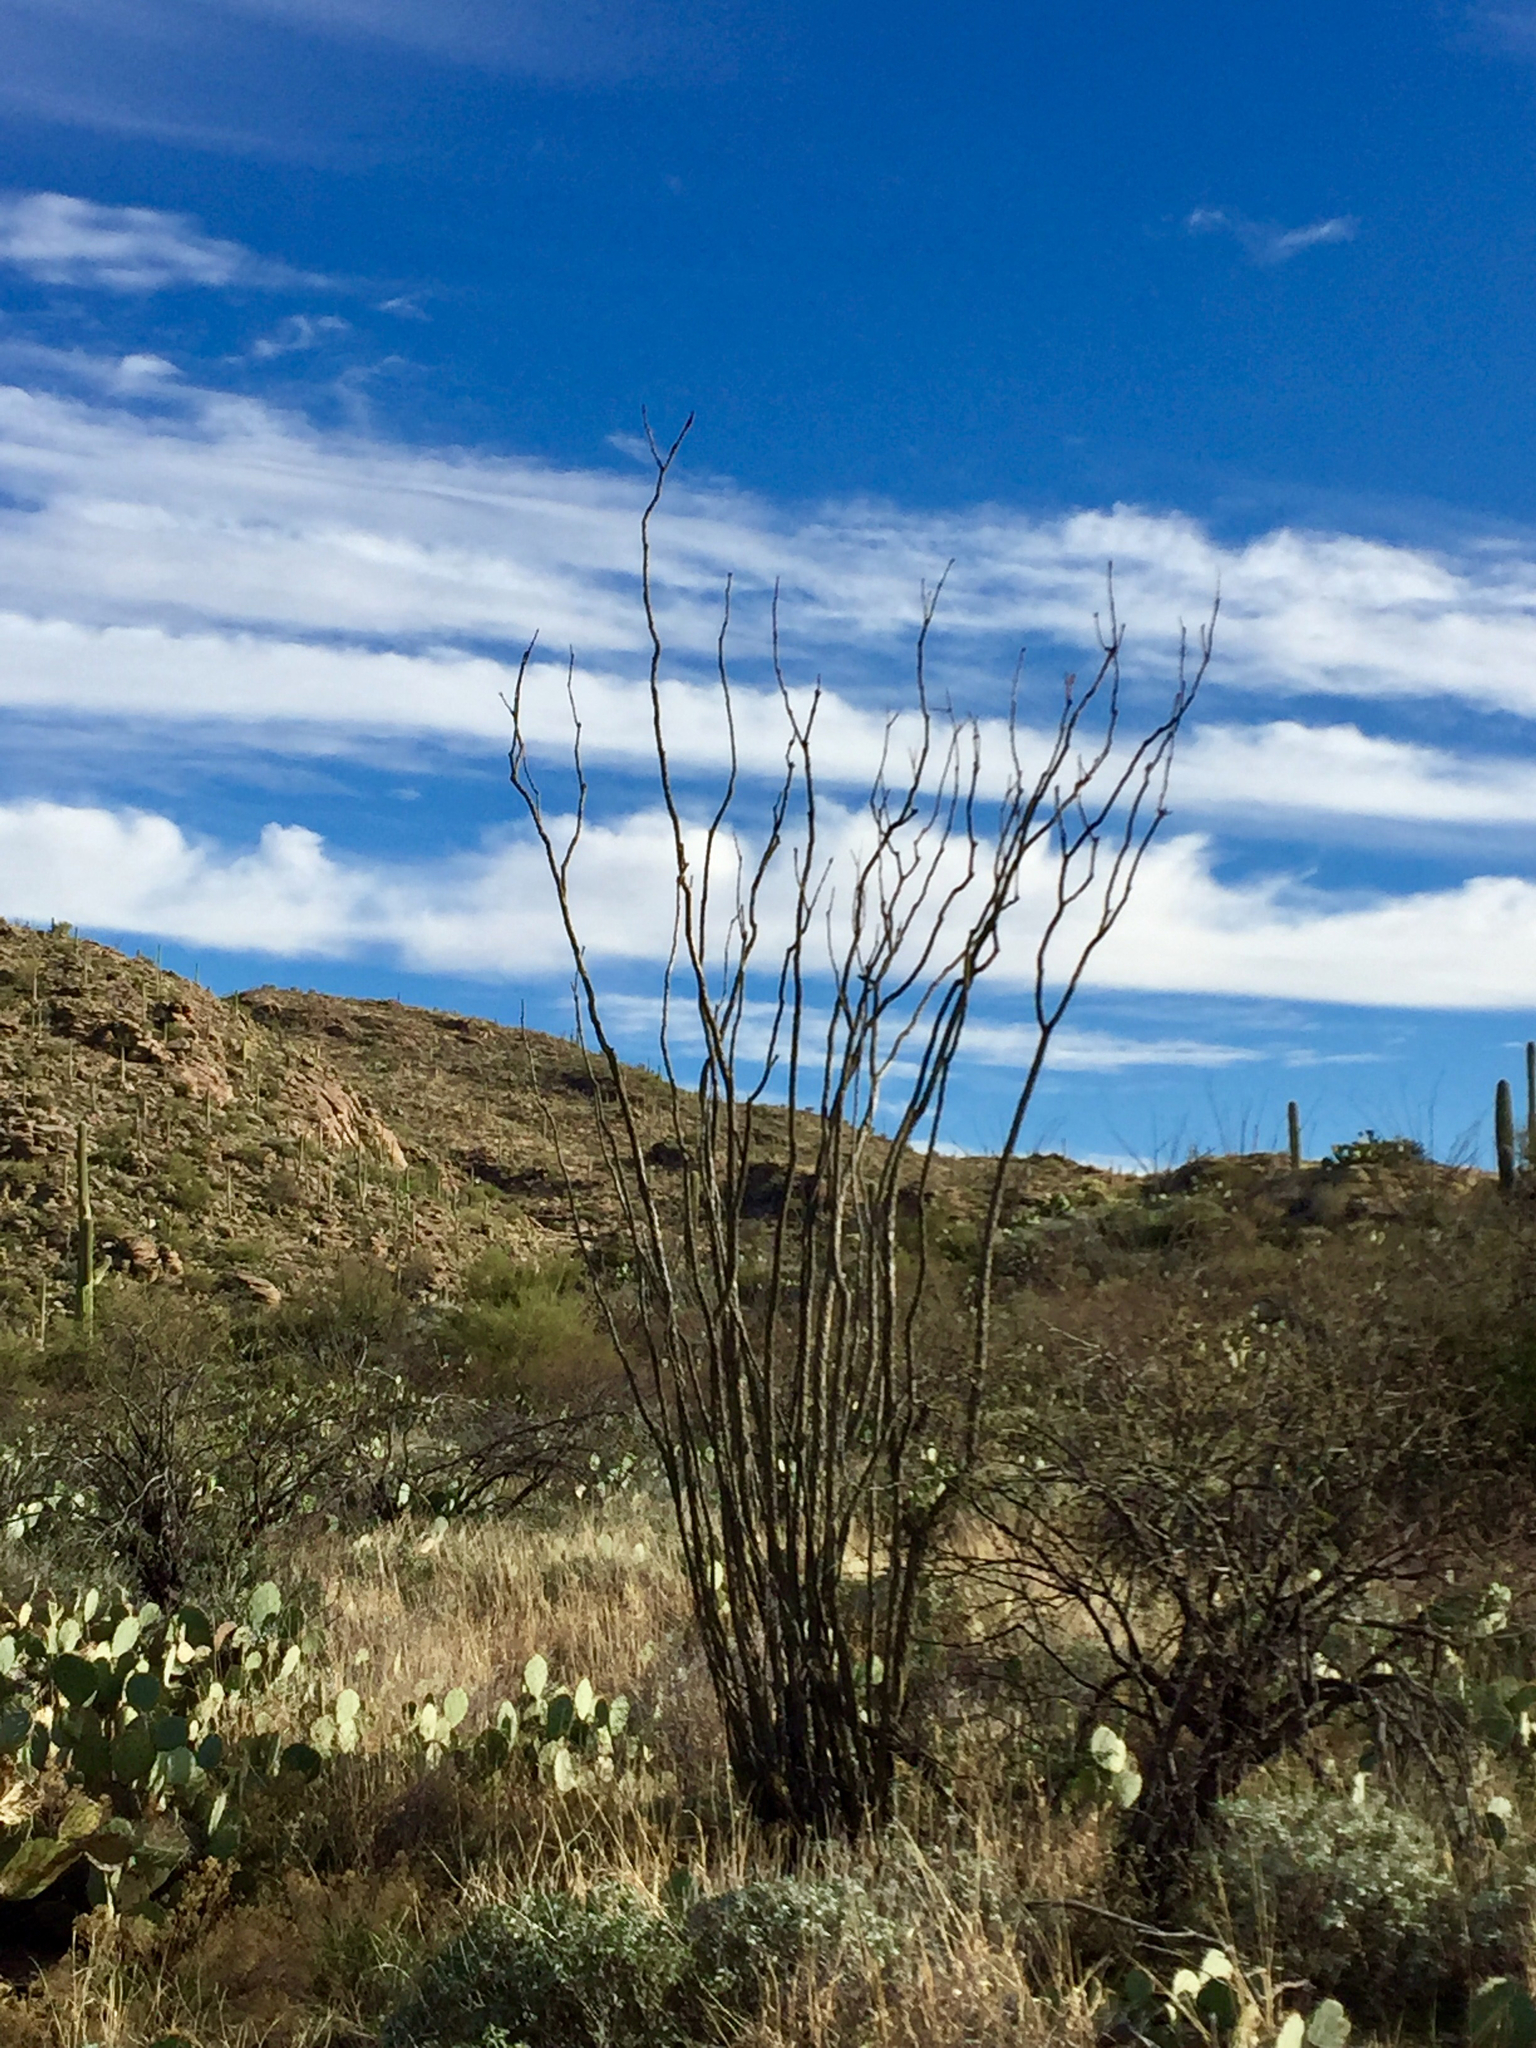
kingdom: Plantae
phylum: Tracheophyta
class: Magnoliopsida
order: Ericales
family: Fouquieriaceae
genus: Fouquieria
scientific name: Fouquieria splendens
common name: Vine-cactus
